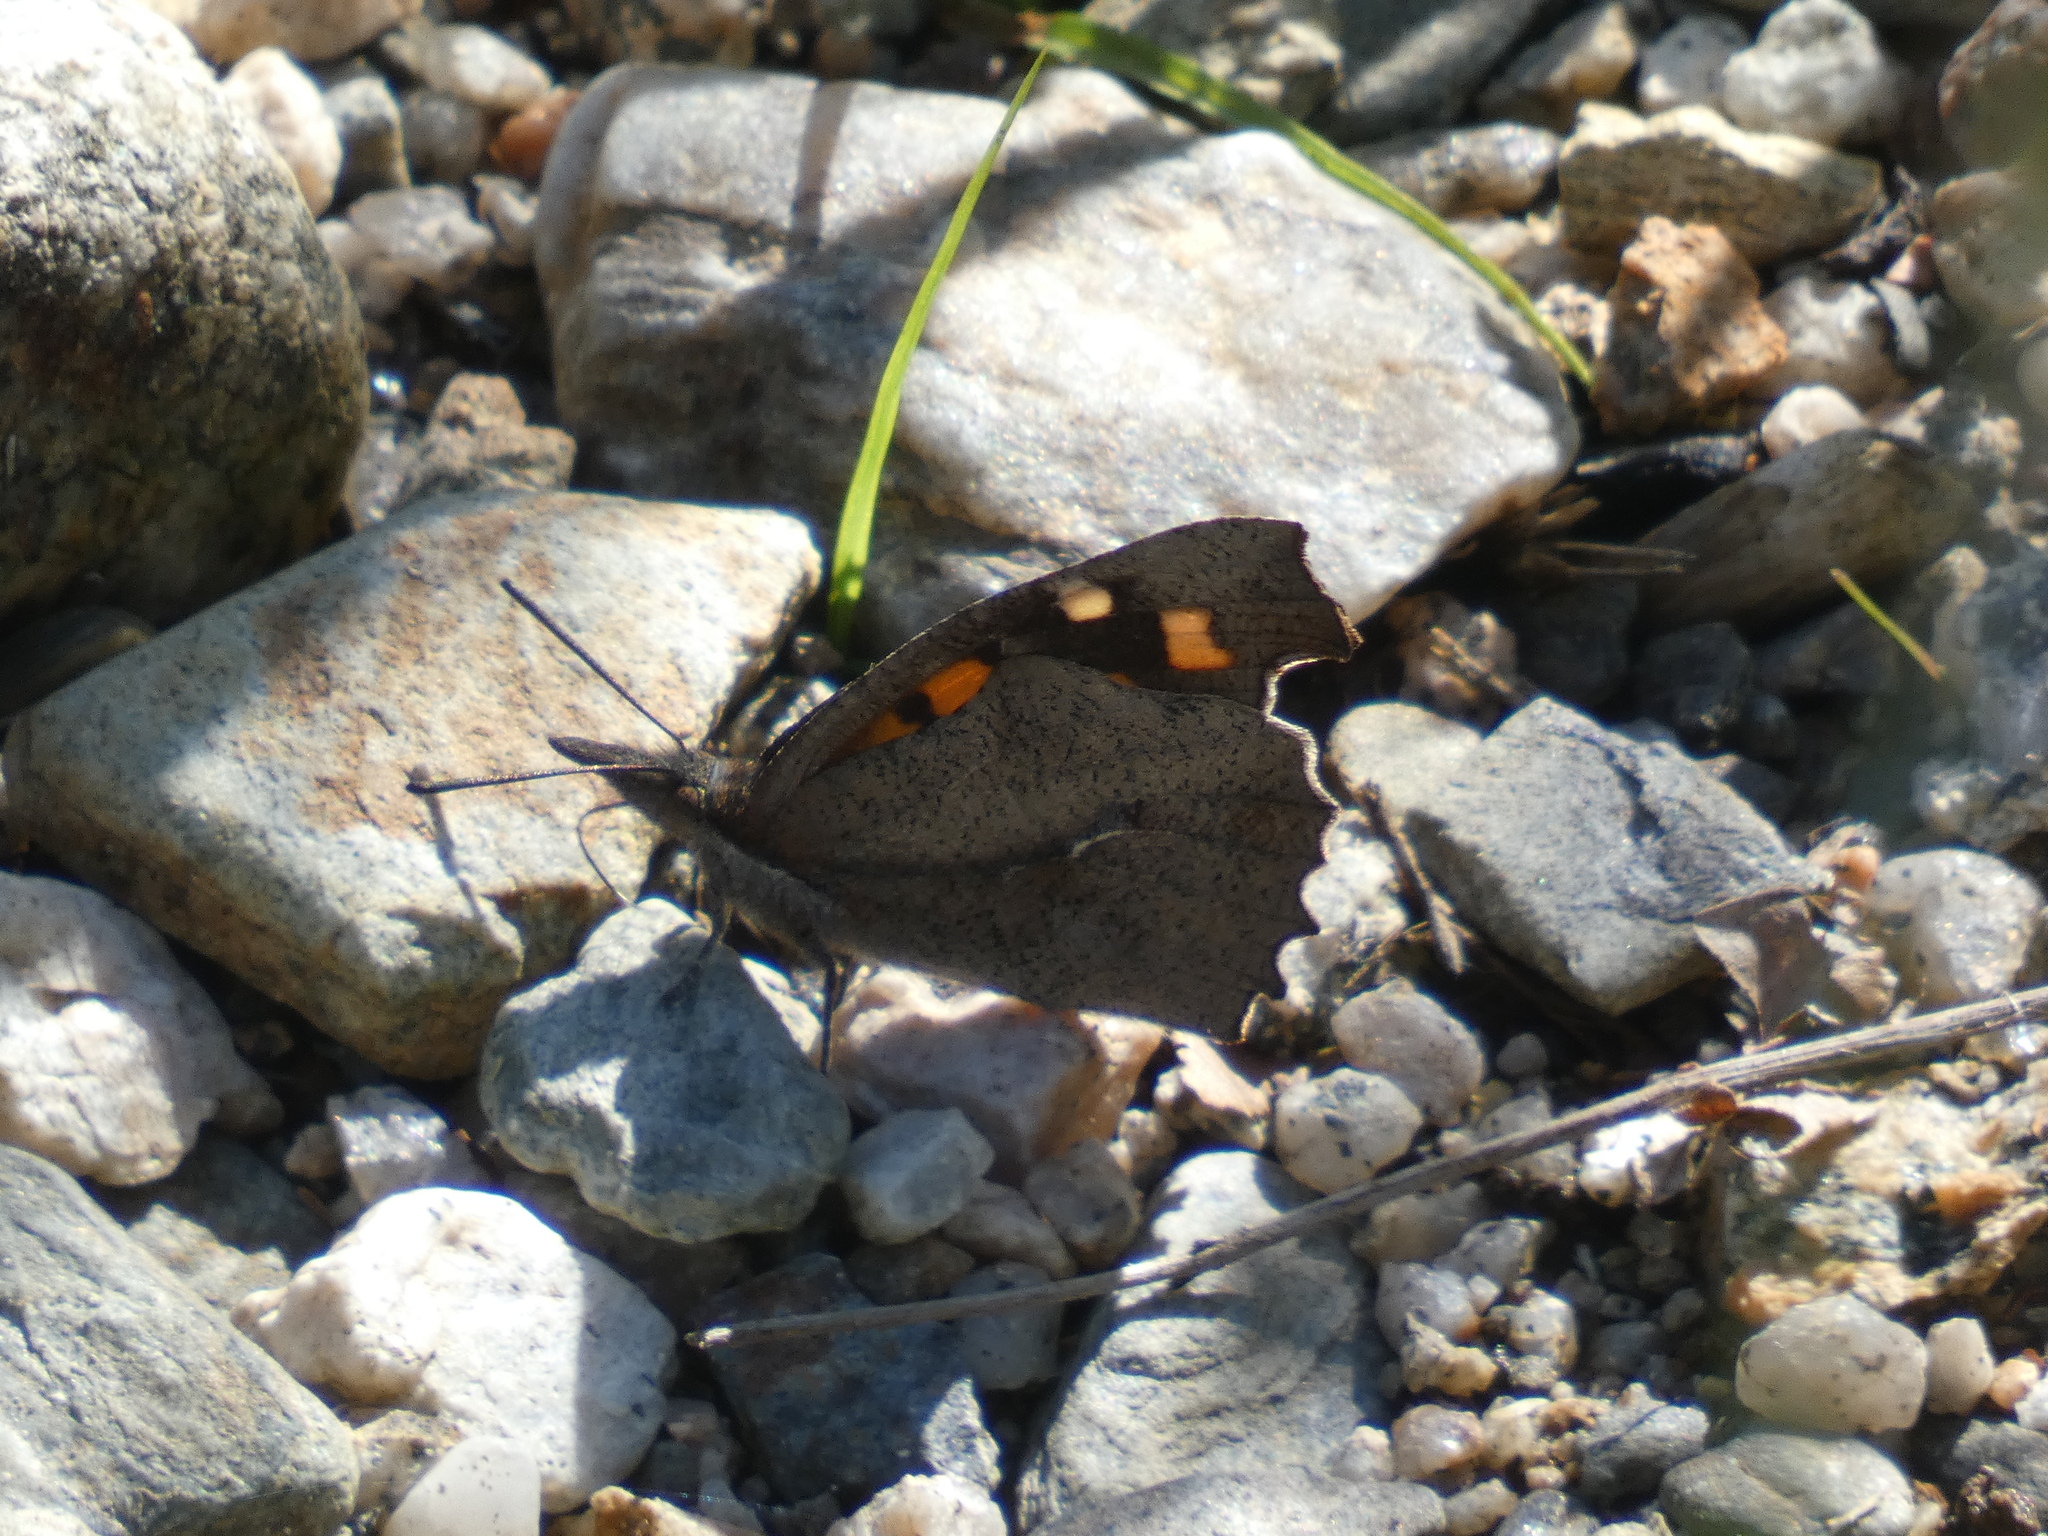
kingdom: Animalia
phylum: Arthropoda
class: Insecta
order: Lepidoptera
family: Nymphalidae
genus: Libythea
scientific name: Libythea celtis
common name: Nettle-tree butterfly
